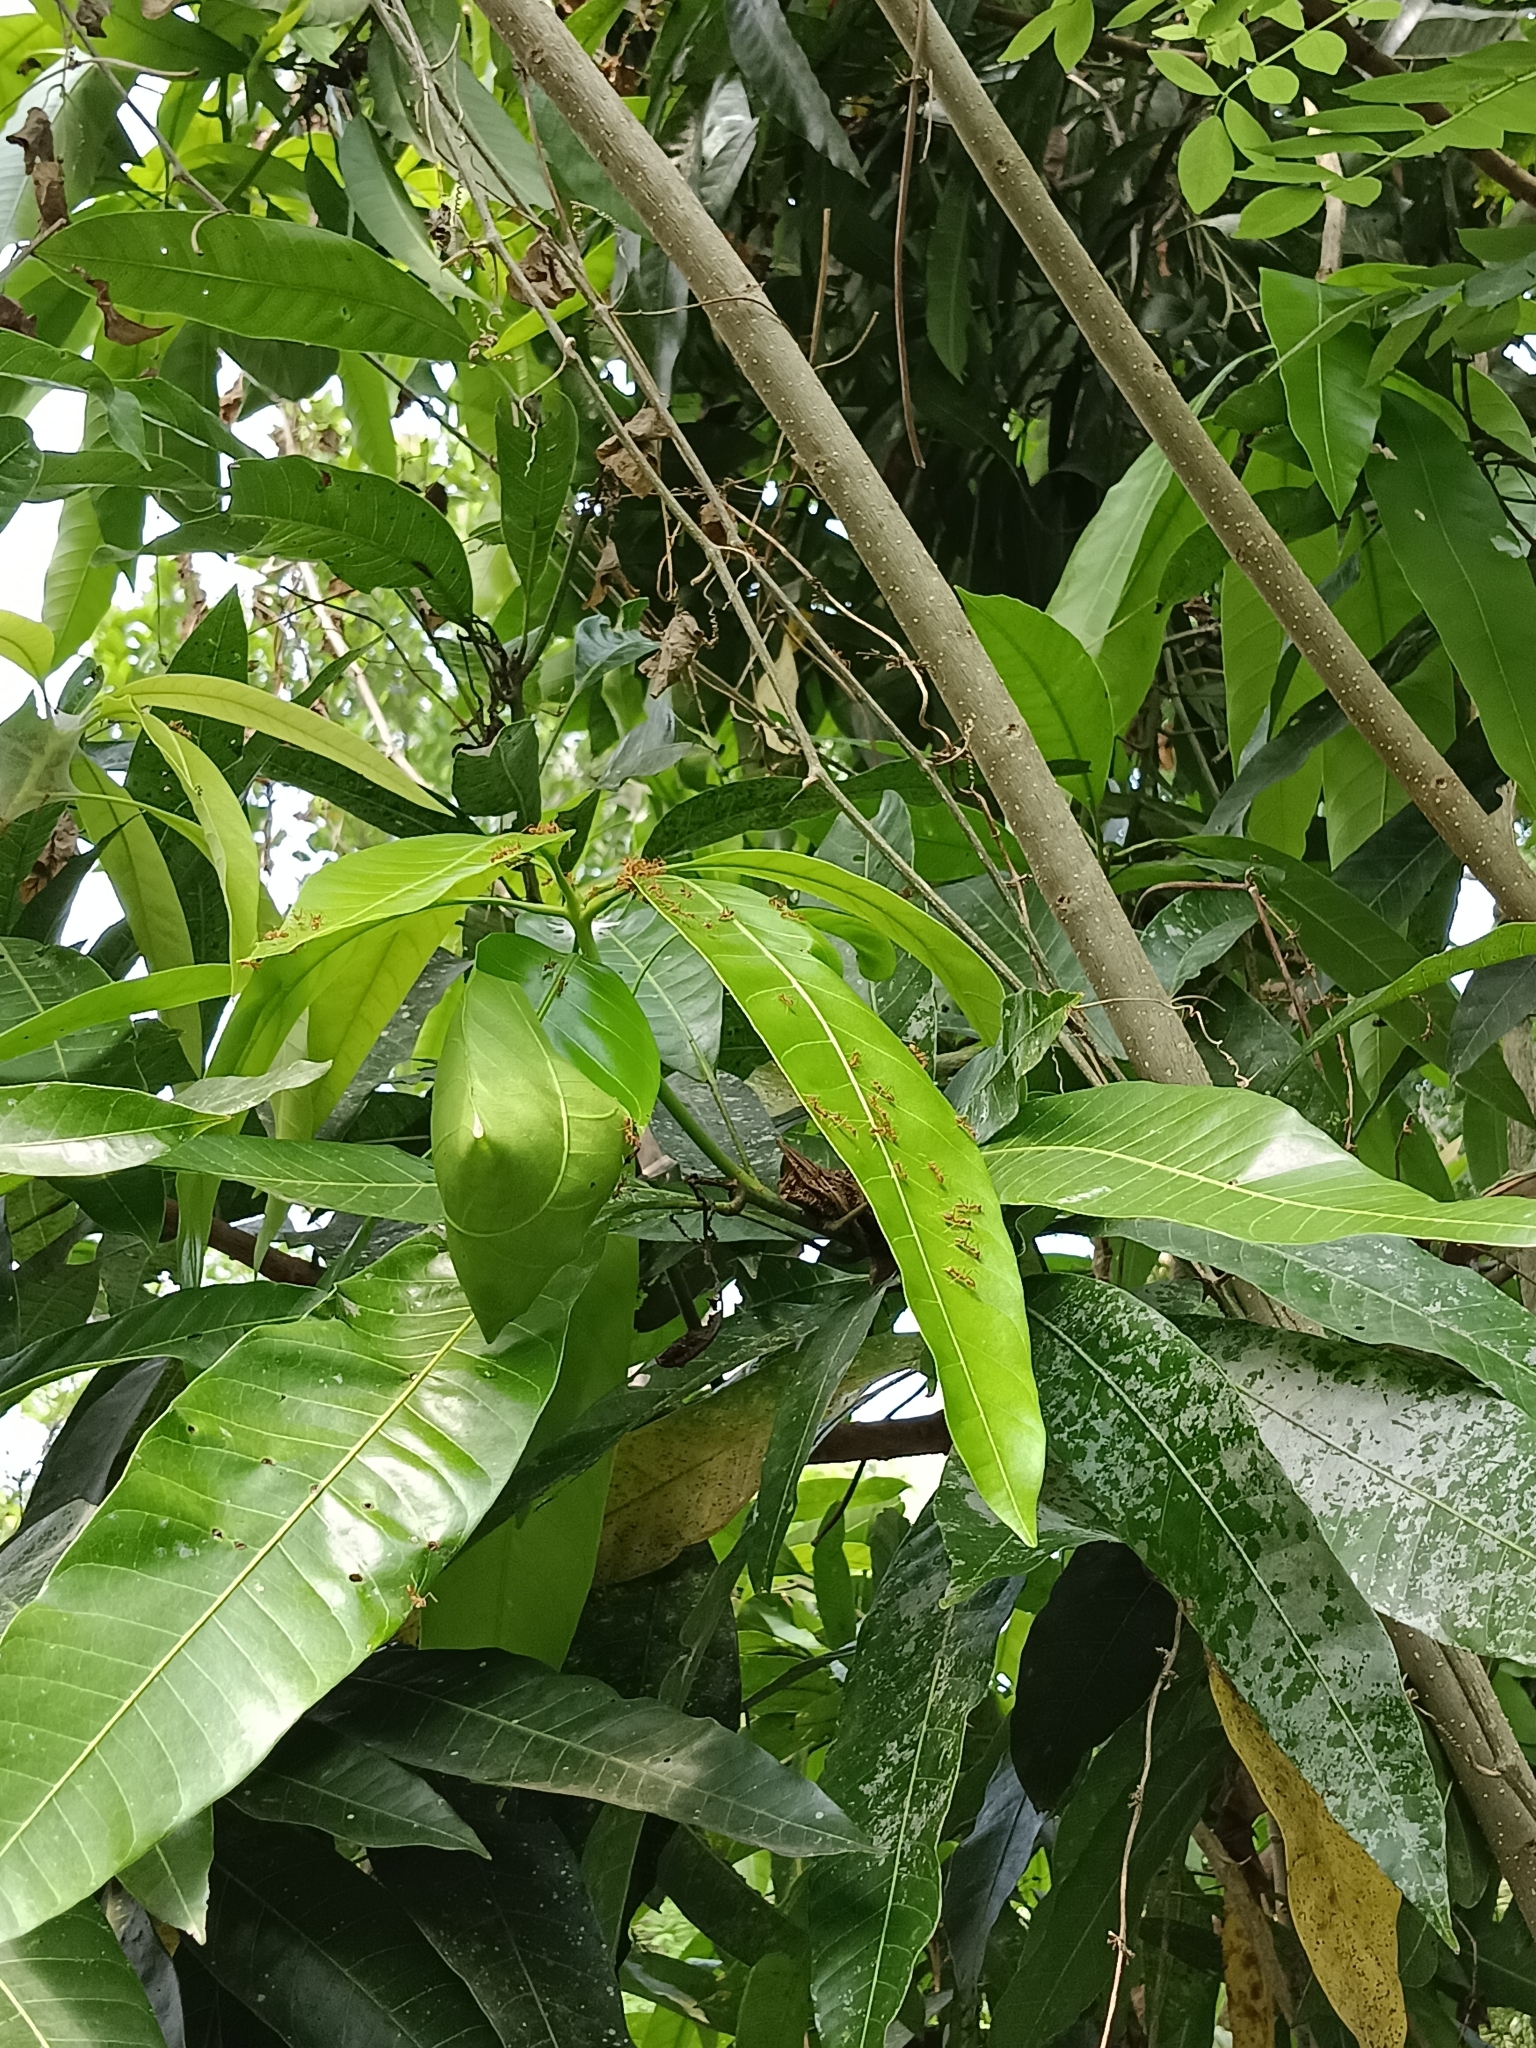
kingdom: Animalia
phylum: Arthropoda
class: Insecta
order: Hymenoptera
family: Formicidae
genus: Oecophylla
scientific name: Oecophylla smaragdina
